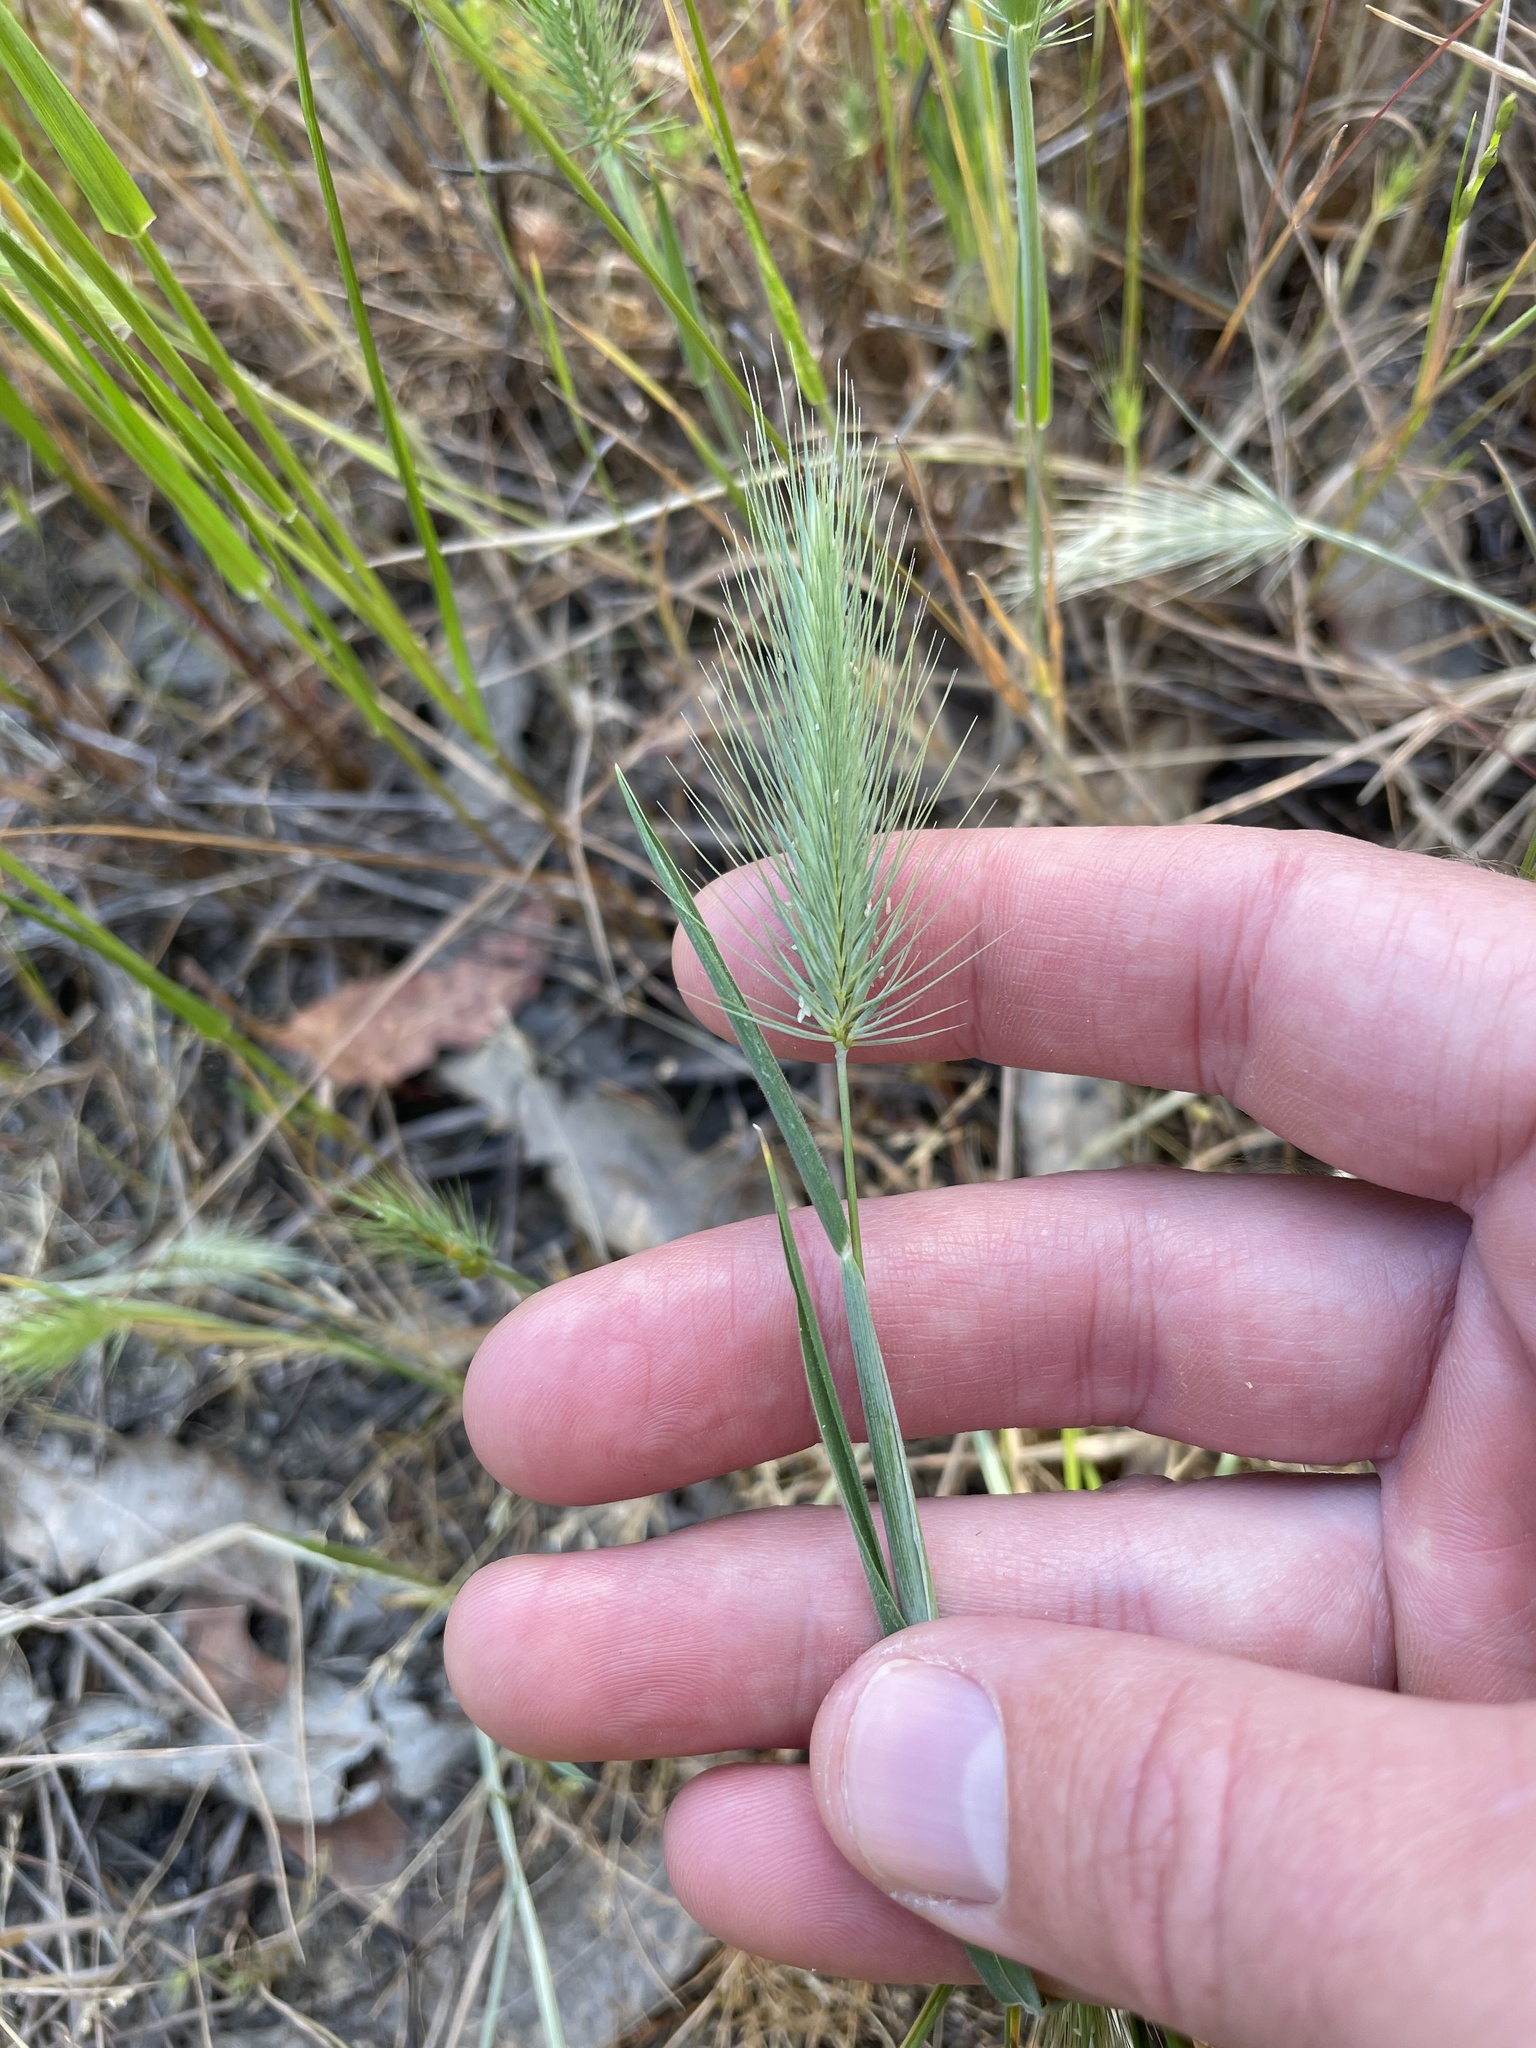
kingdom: Plantae
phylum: Tracheophyta
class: Liliopsida
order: Poales
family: Poaceae
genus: Hordeum
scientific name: Hordeum marinum
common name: Sea barley
